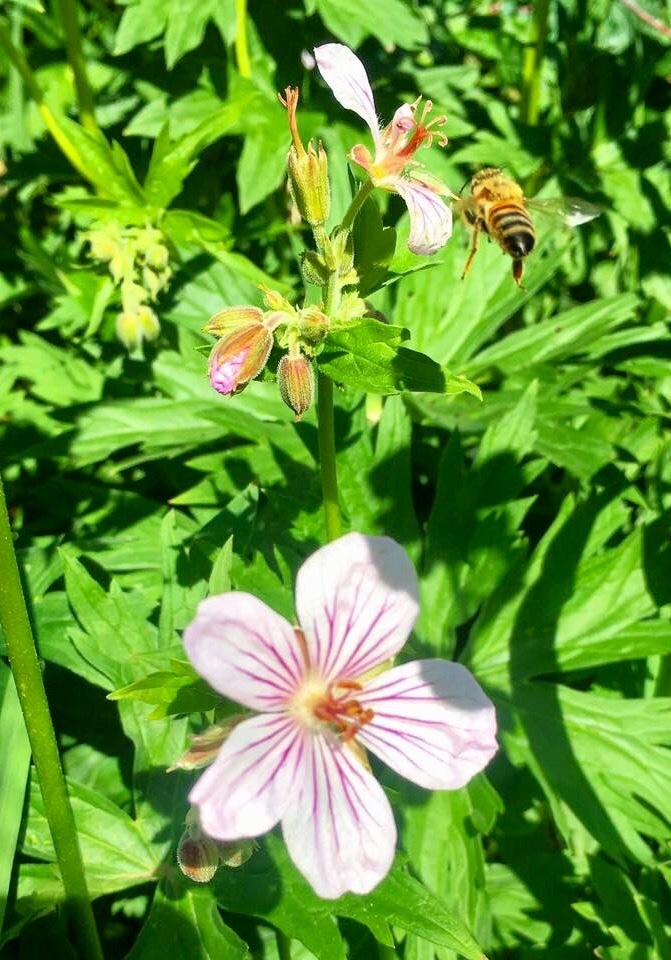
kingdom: Plantae
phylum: Tracheophyta
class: Magnoliopsida
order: Geraniales
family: Geraniaceae
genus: Geranium
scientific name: Geranium viscosissimum
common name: Purple geranium
